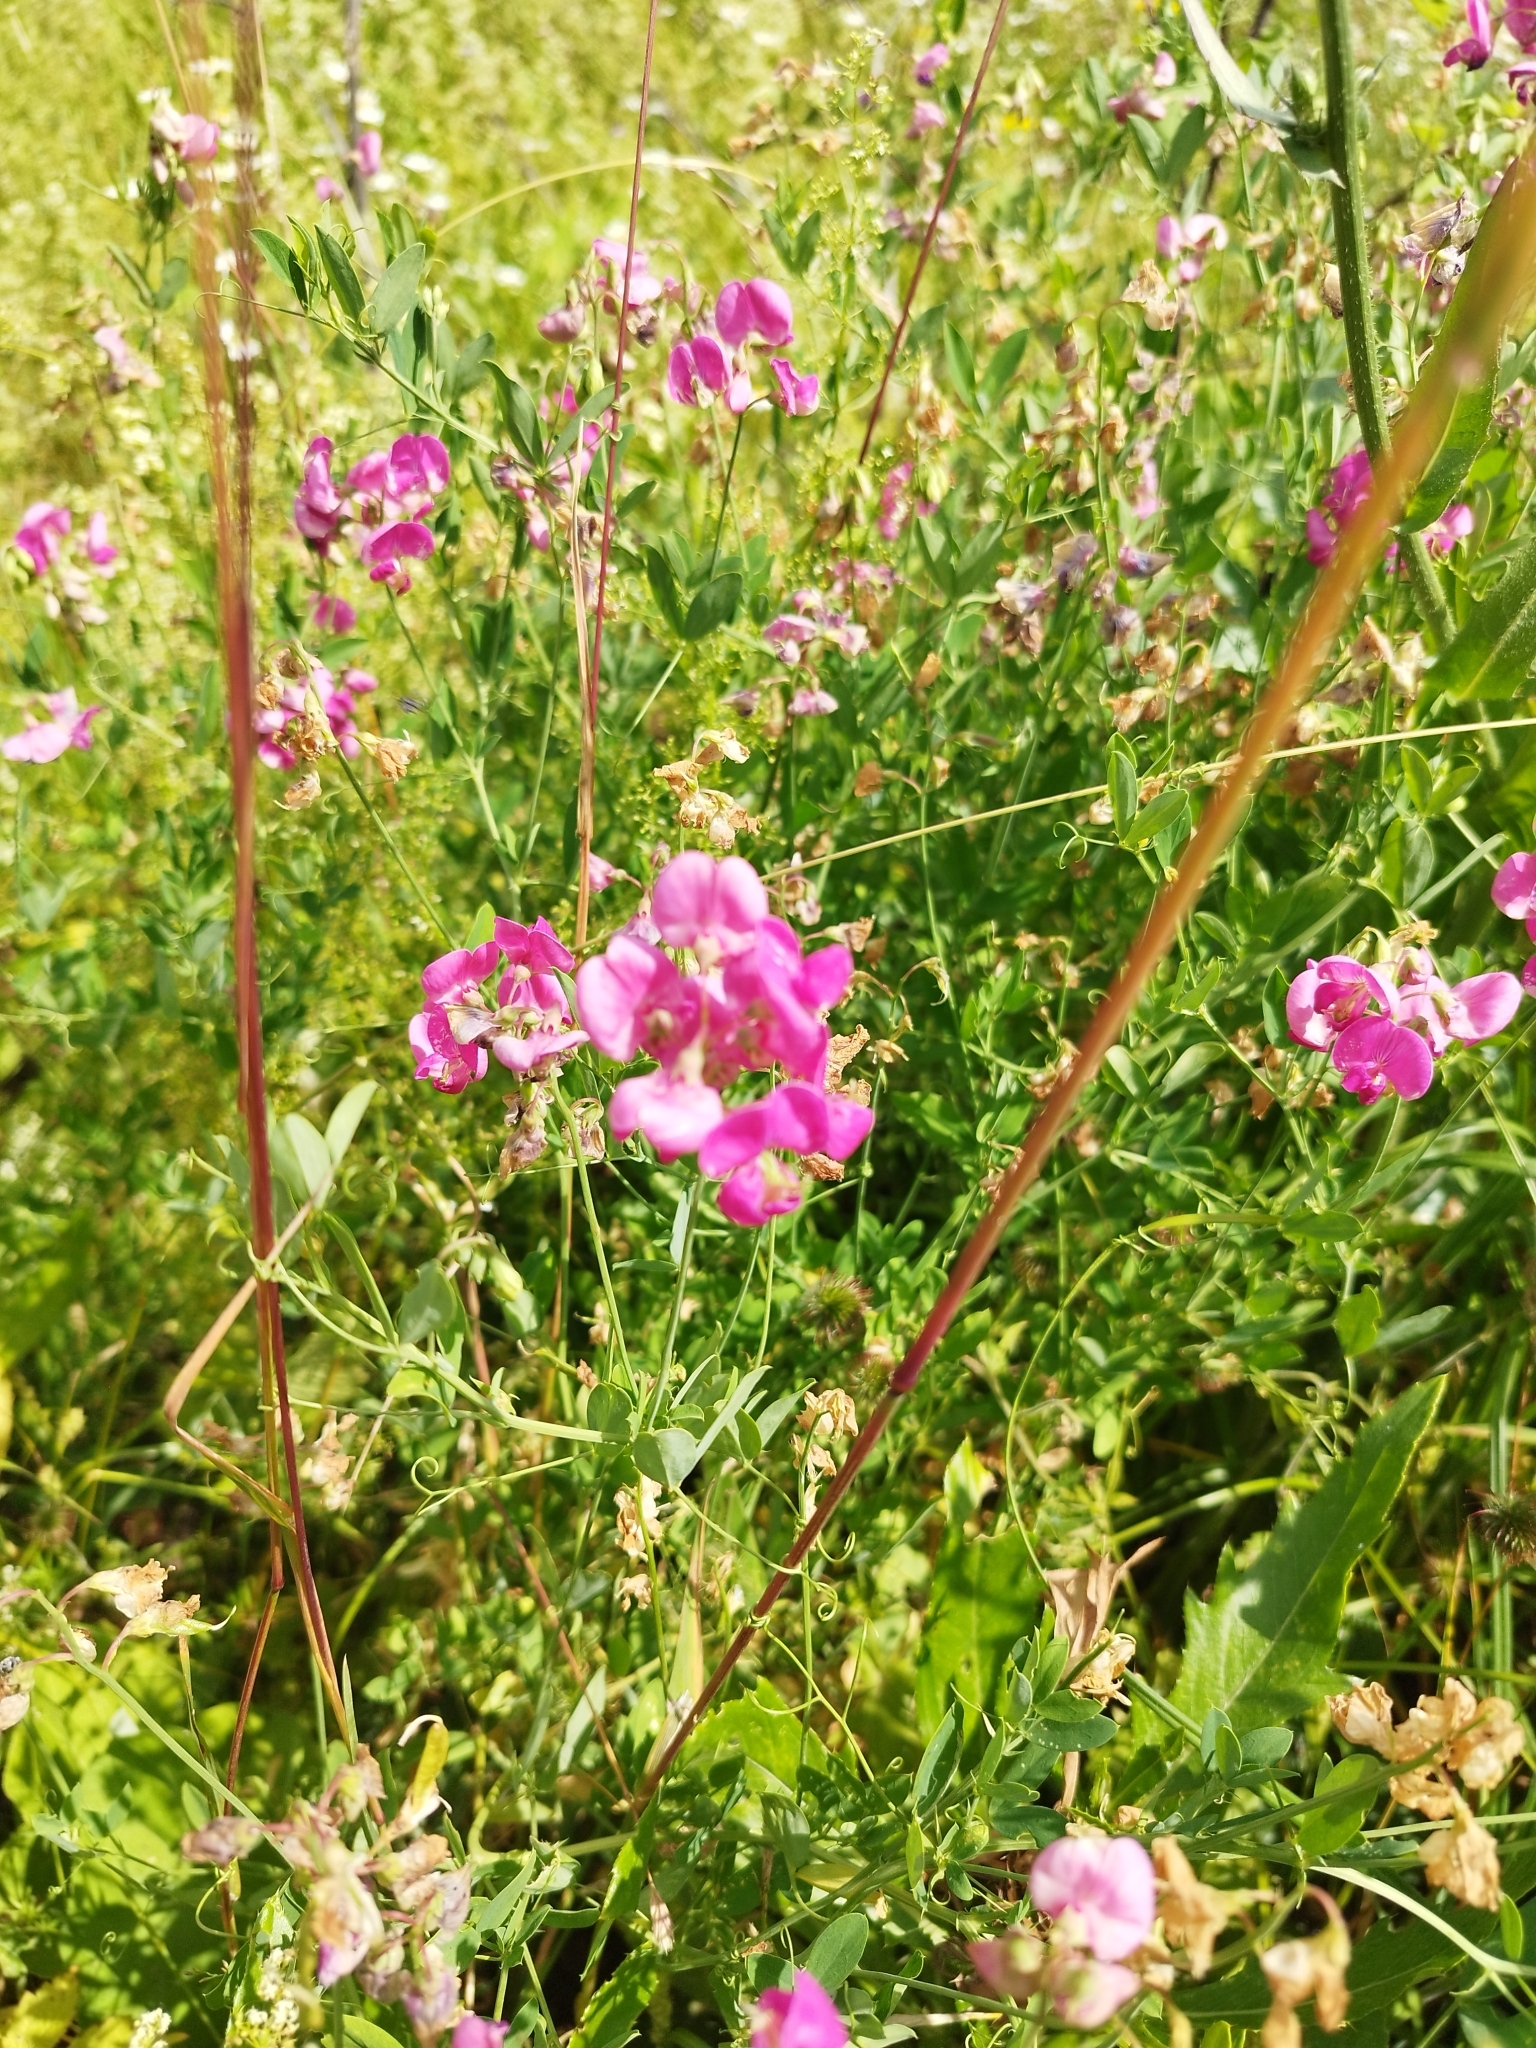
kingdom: Plantae
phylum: Tracheophyta
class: Magnoliopsida
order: Fabales
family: Fabaceae
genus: Lathyrus
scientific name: Lathyrus tuberosus
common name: Tuberous pea
